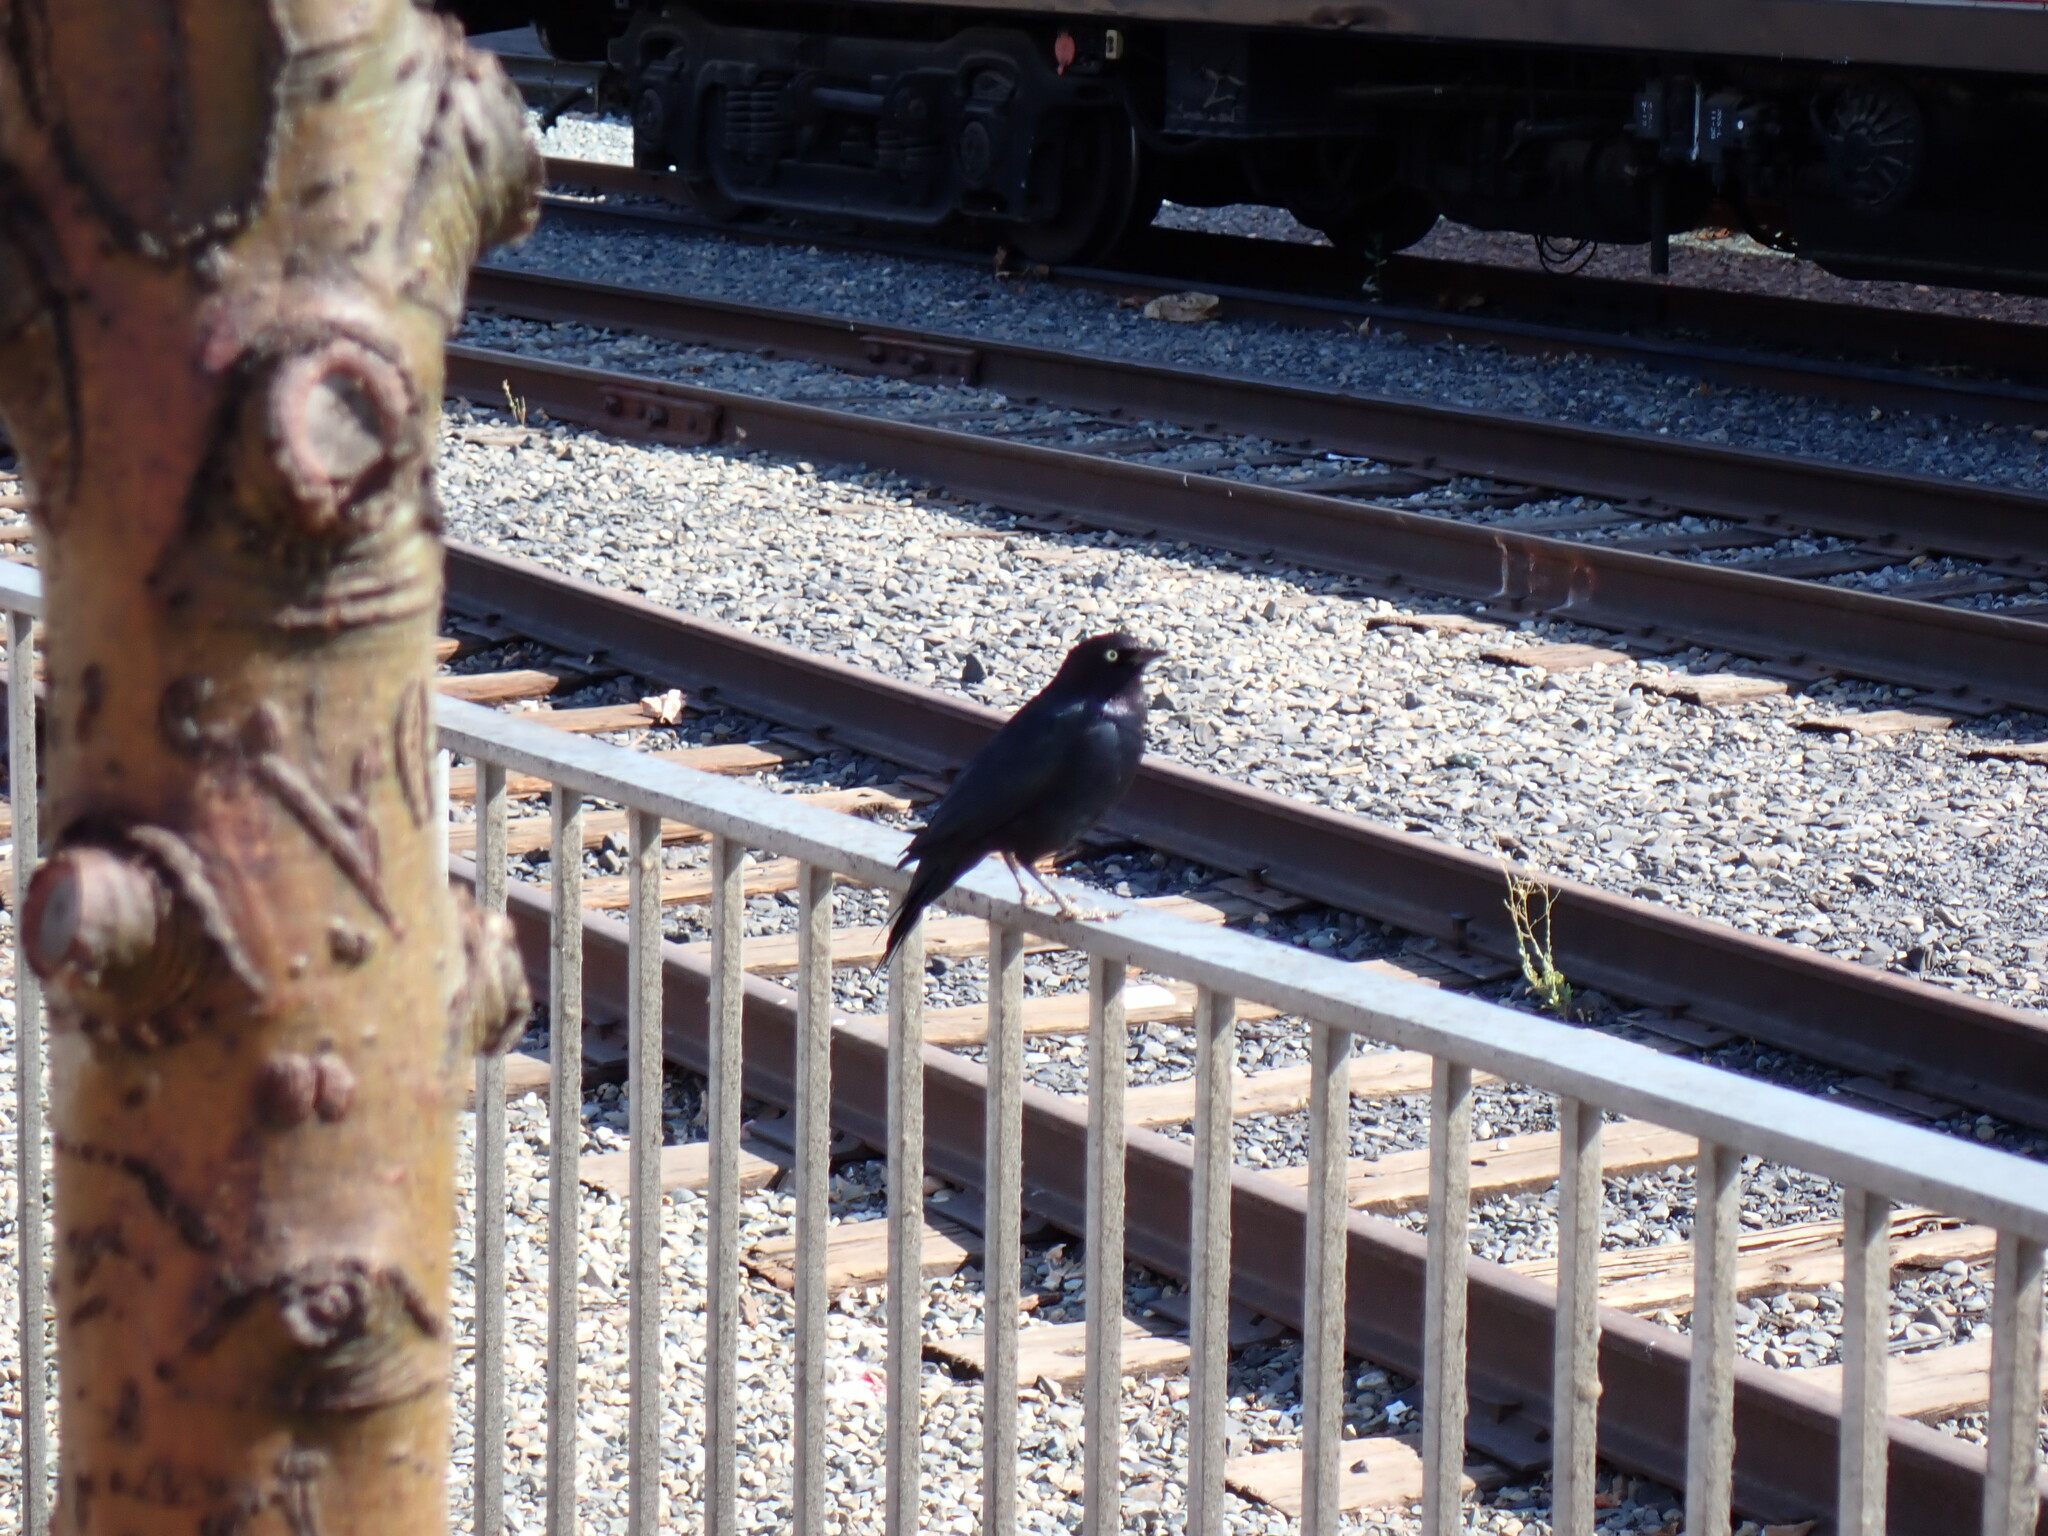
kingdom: Animalia
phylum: Chordata
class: Aves
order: Passeriformes
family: Icteridae
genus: Euphagus
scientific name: Euphagus cyanocephalus
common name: Brewer's blackbird
